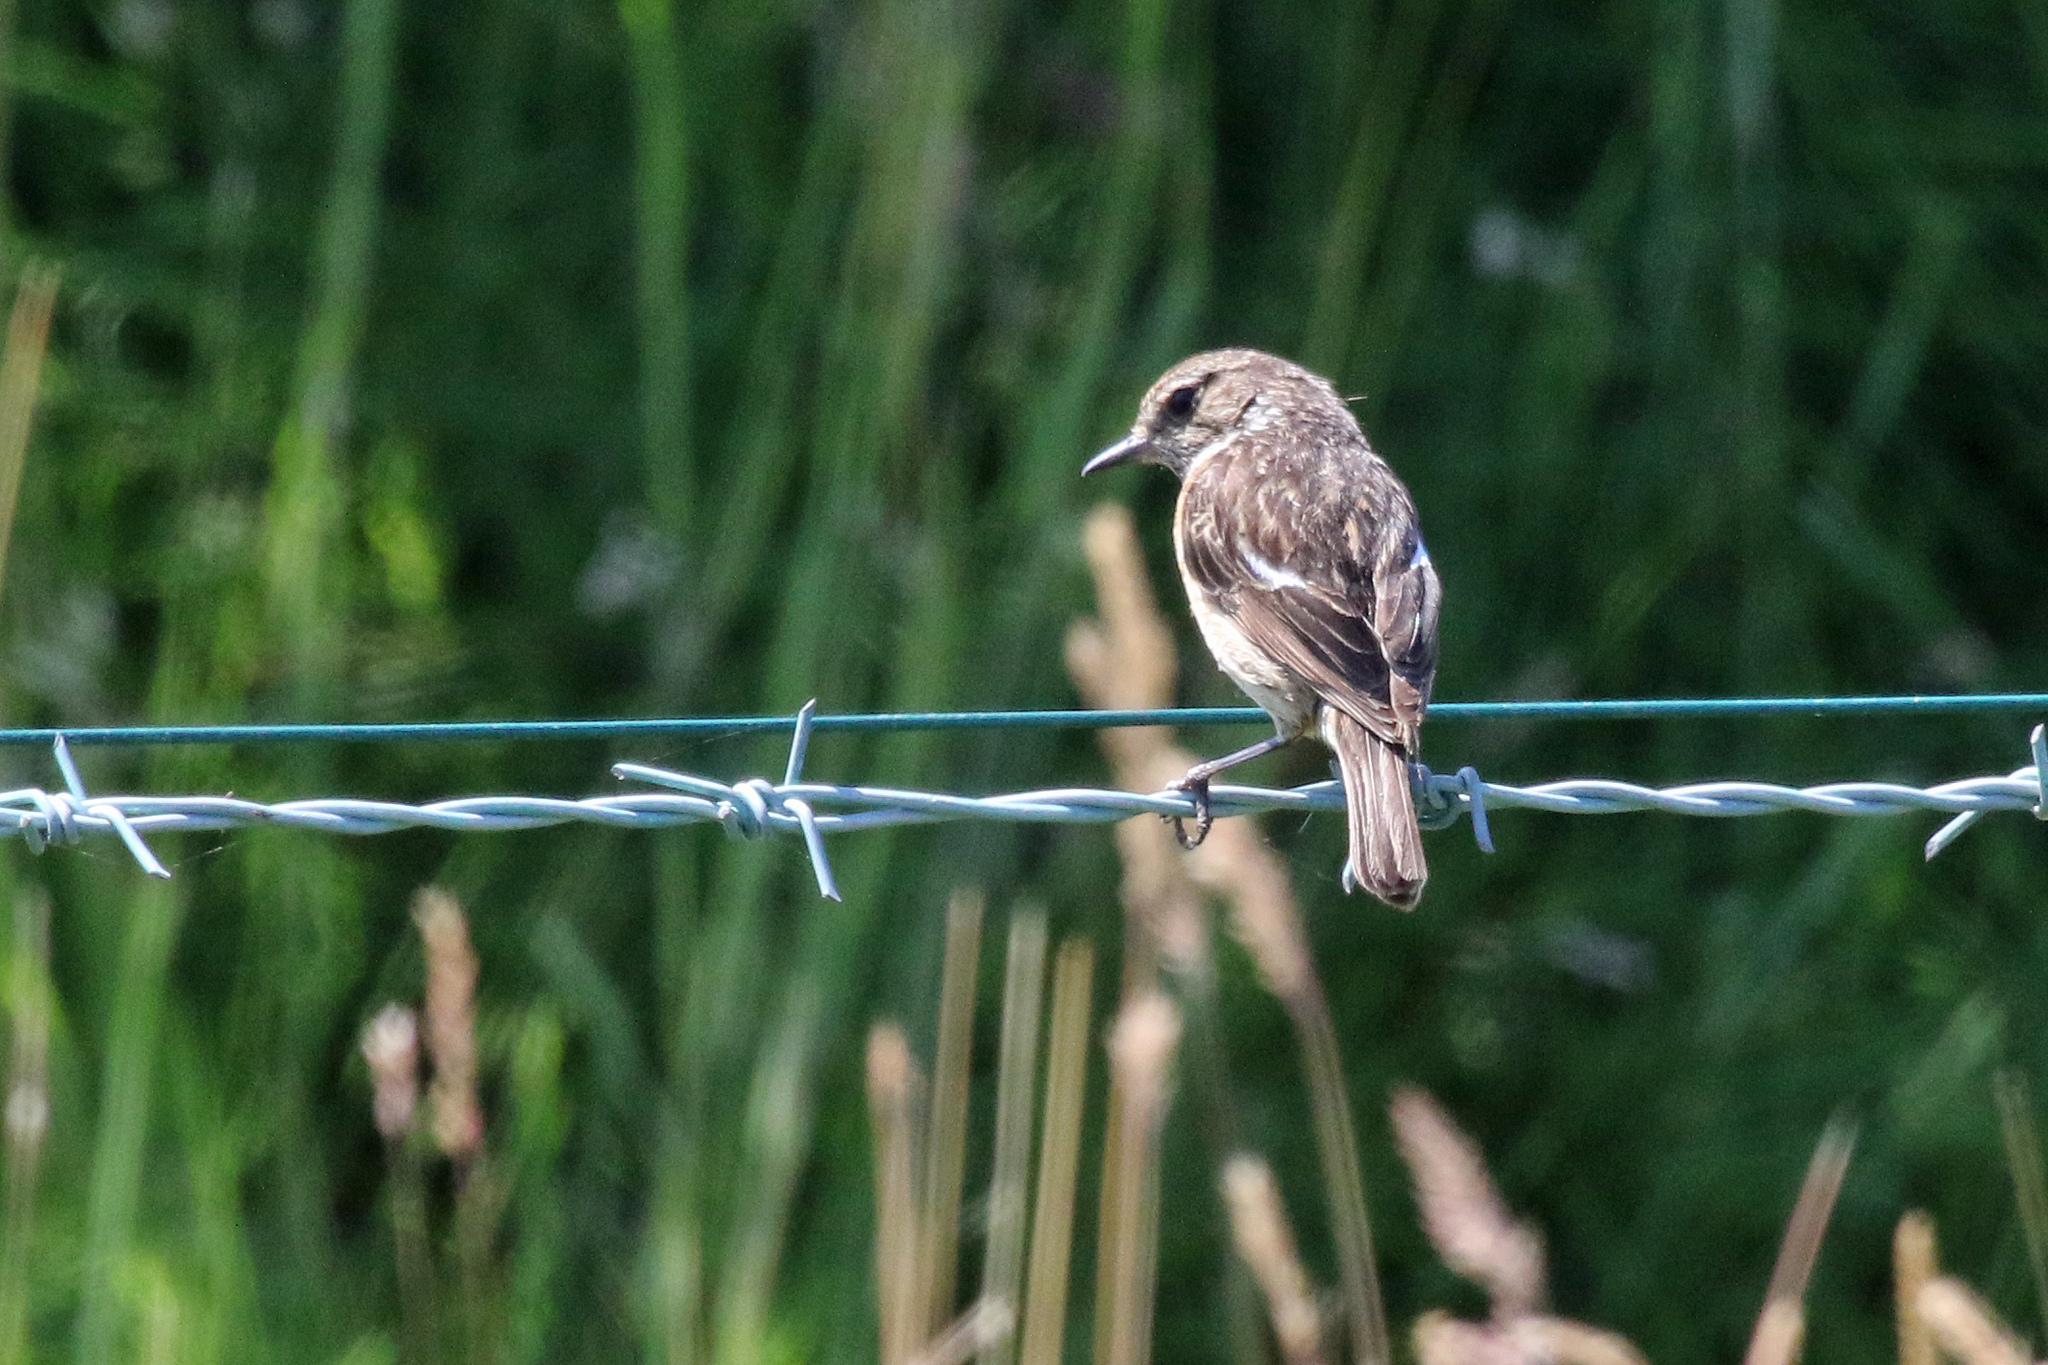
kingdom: Animalia
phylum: Chordata
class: Aves
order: Passeriformes
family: Muscicapidae
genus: Saxicola
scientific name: Saxicola rubicola
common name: European stonechat
